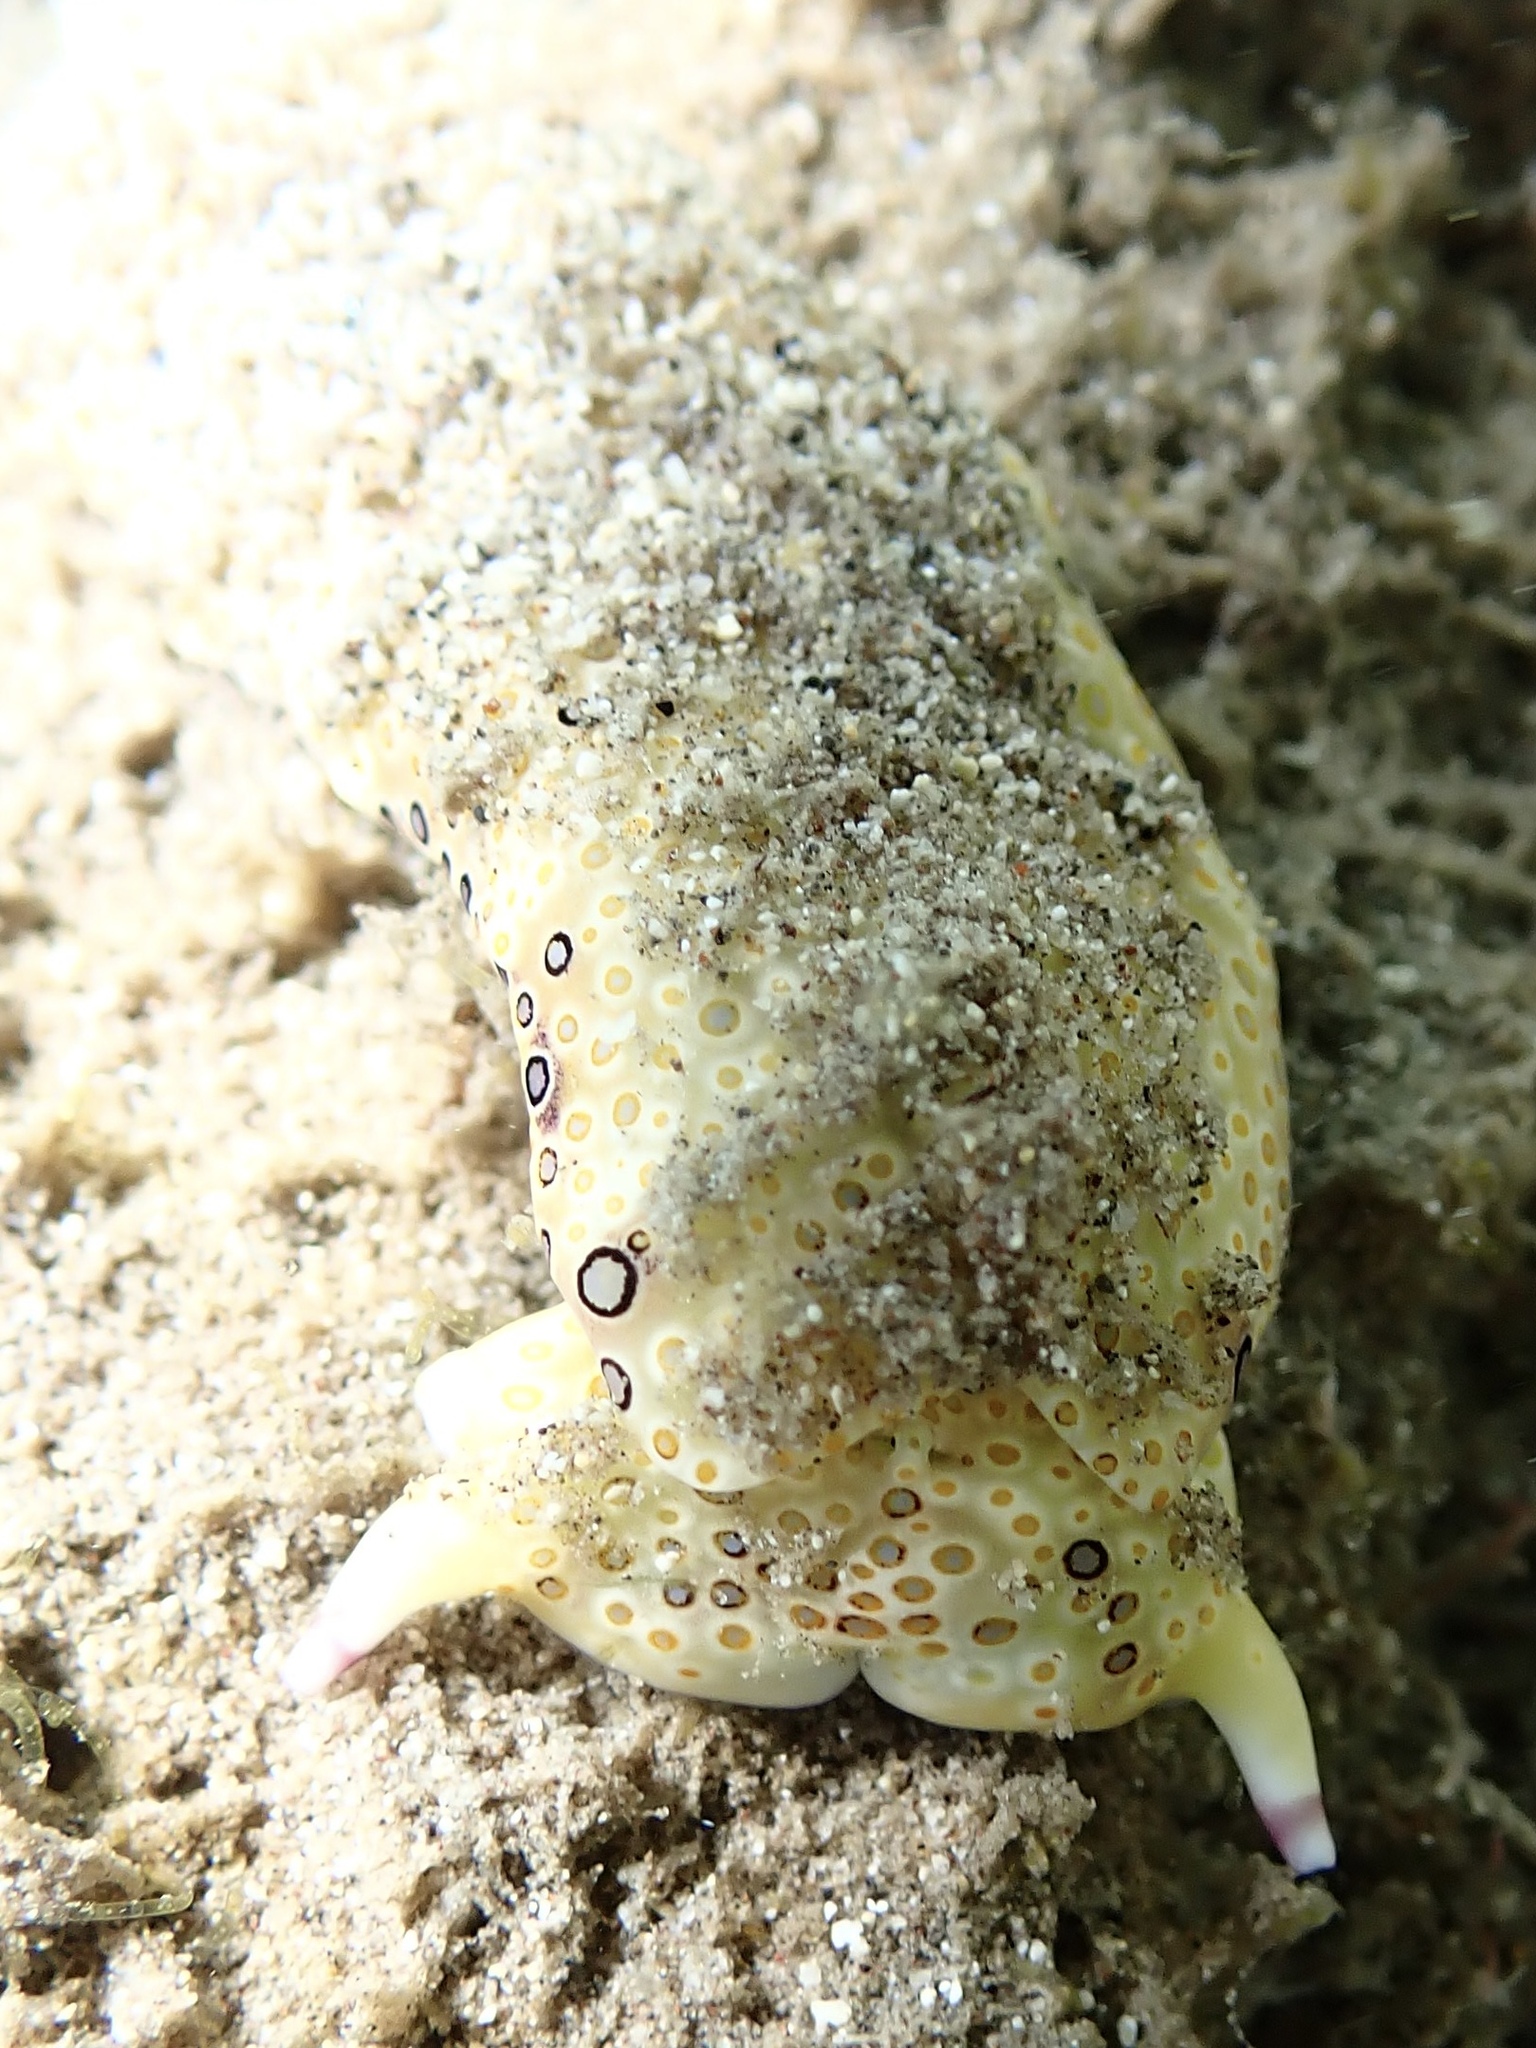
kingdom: Animalia
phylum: Mollusca
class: Gastropoda
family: Plakobranchidae
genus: Plakobranchus
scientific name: Plakobranchus ocellatus
